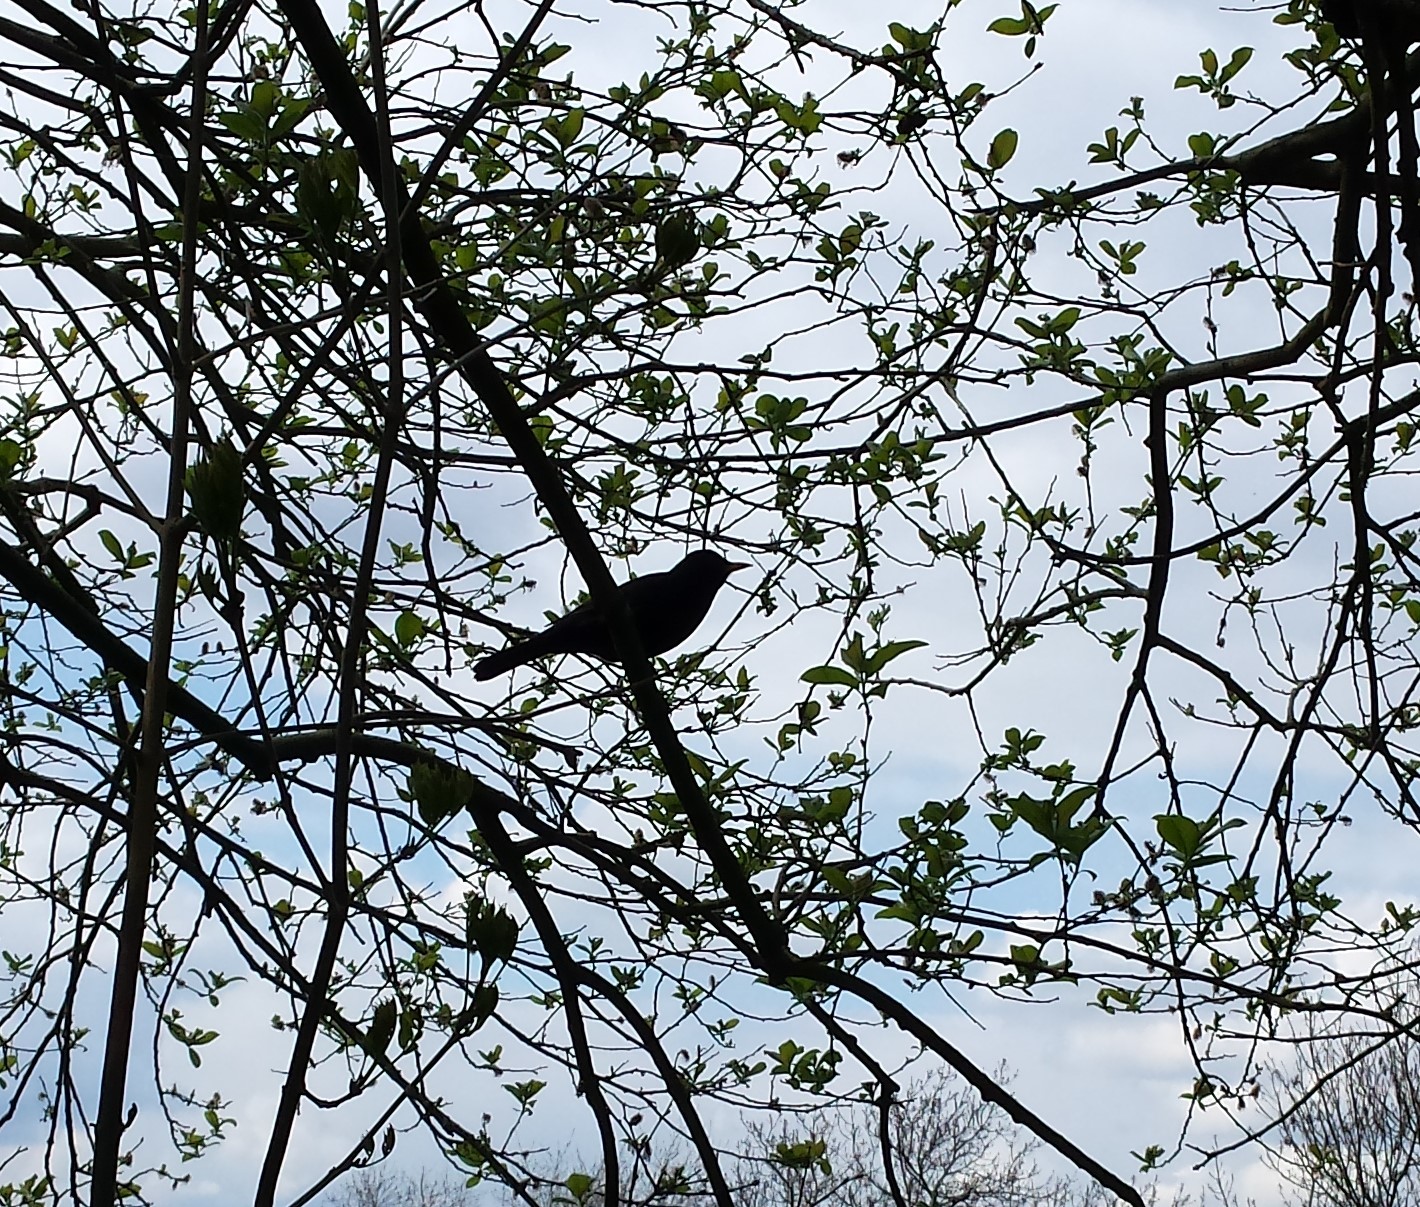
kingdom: Animalia
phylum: Chordata
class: Aves
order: Passeriformes
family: Turdidae
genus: Turdus
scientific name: Turdus merula
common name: Common blackbird
